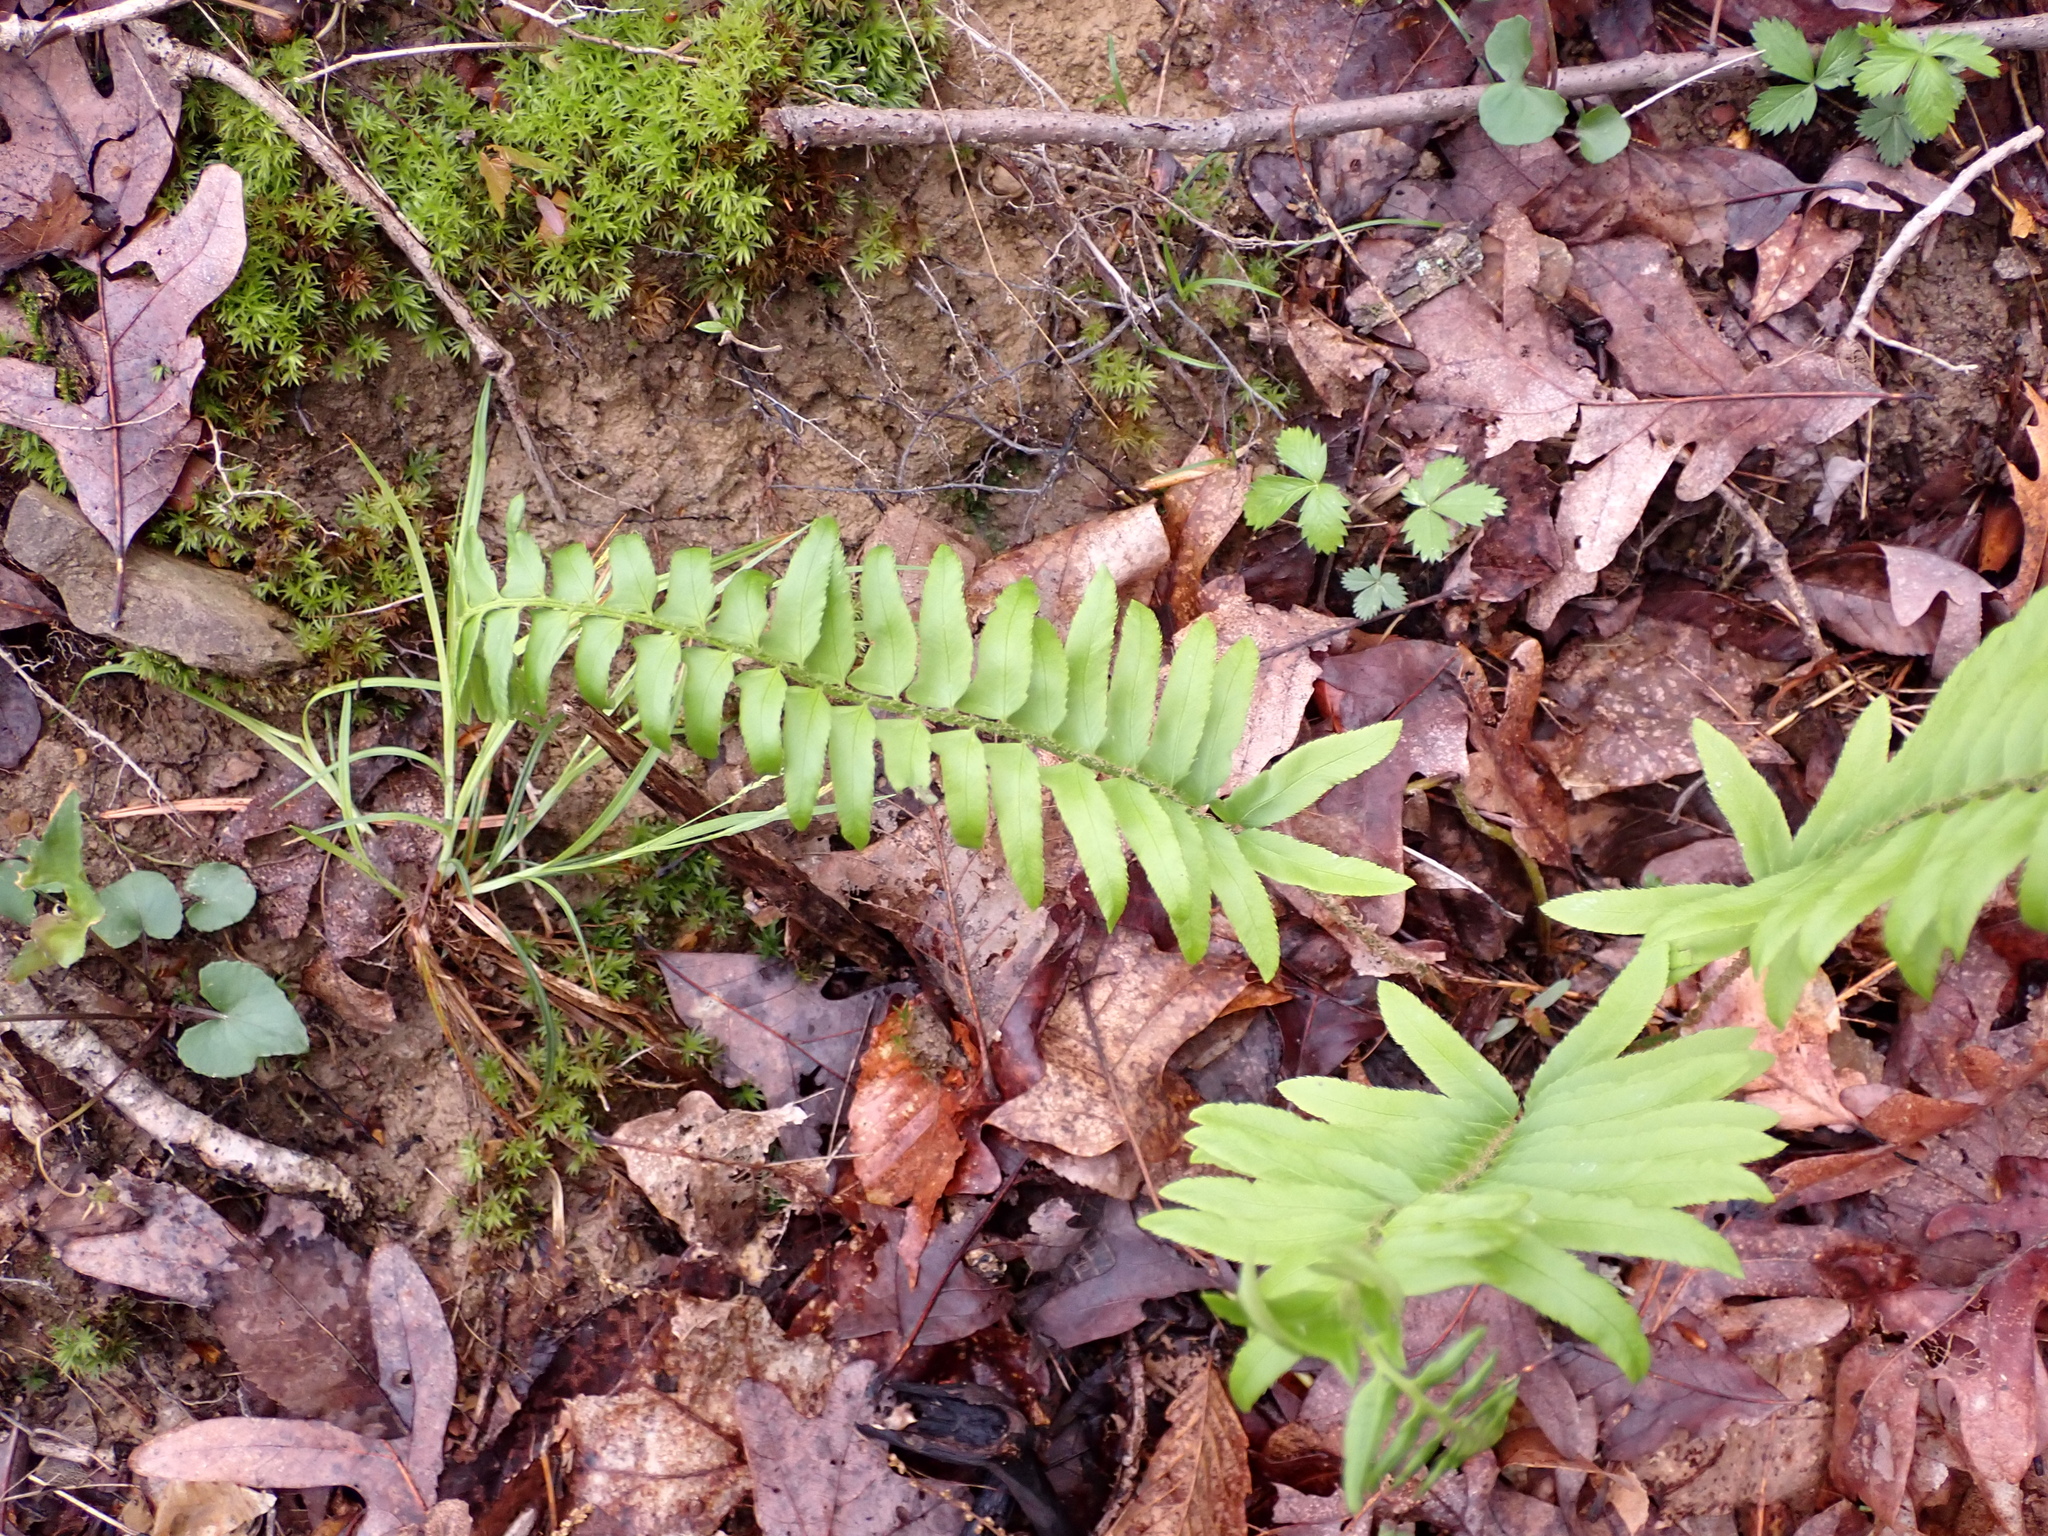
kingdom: Plantae
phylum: Tracheophyta
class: Polypodiopsida
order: Polypodiales
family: Dryopteridaceae
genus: Polystichum
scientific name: Polystichum acrostichoides
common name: Christmas fern
